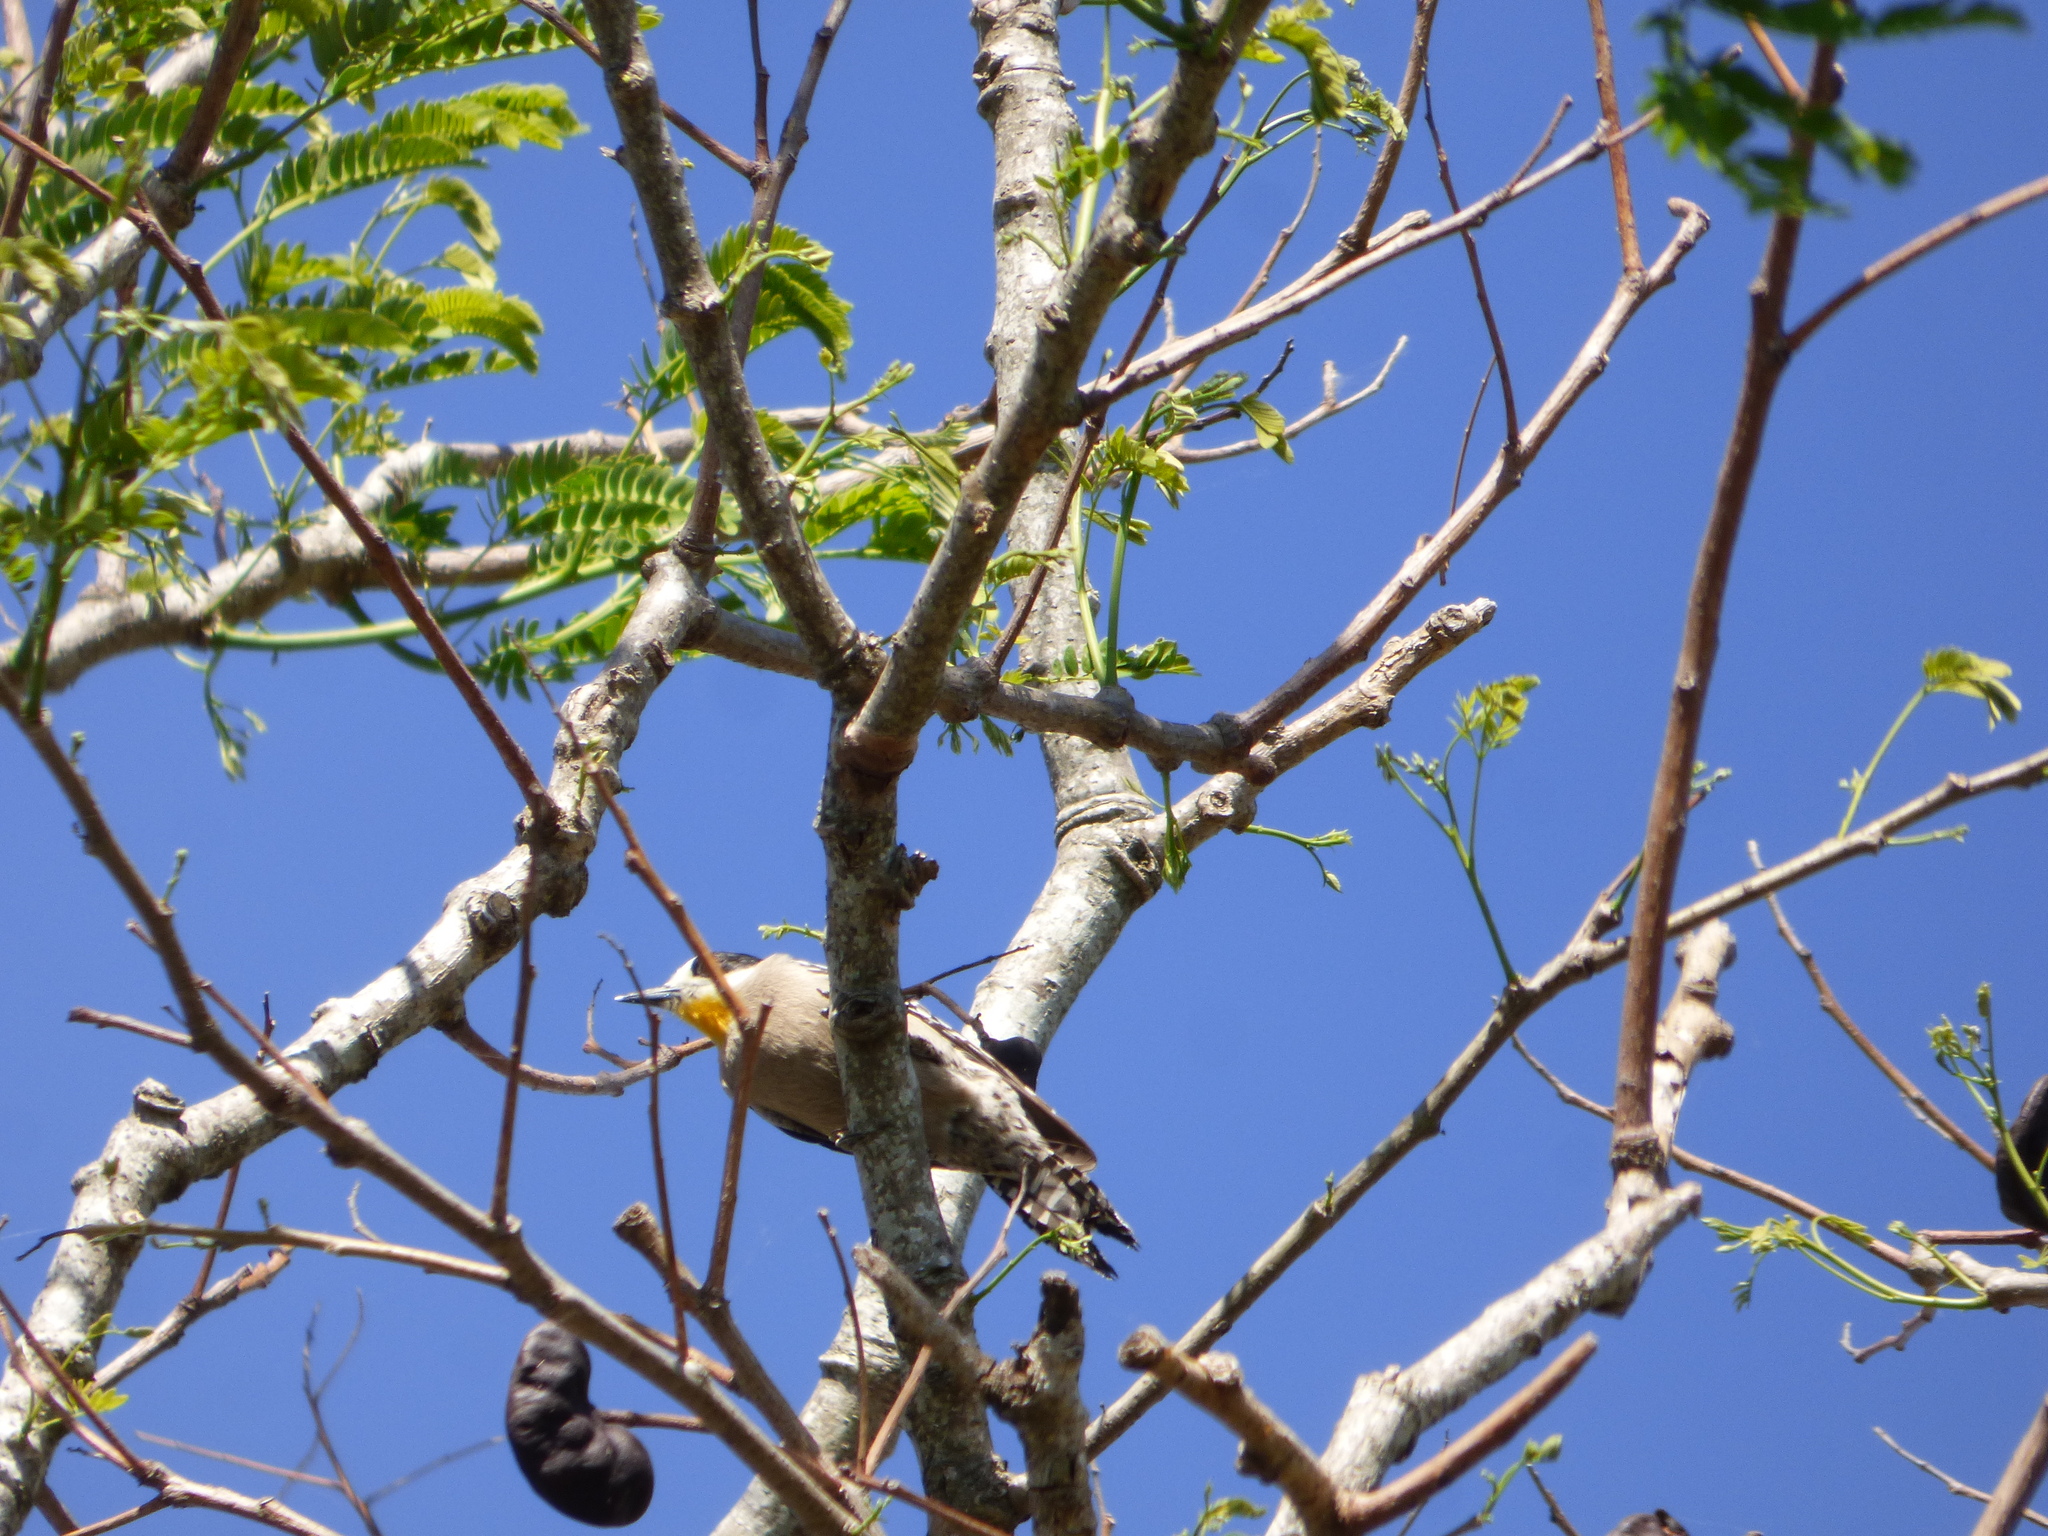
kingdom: Animalia
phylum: Chordata
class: Aves
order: Piciformes
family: Picidae
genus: Melanerpes
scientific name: Melanerpes cactorum
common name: White-fronted woodpecker
